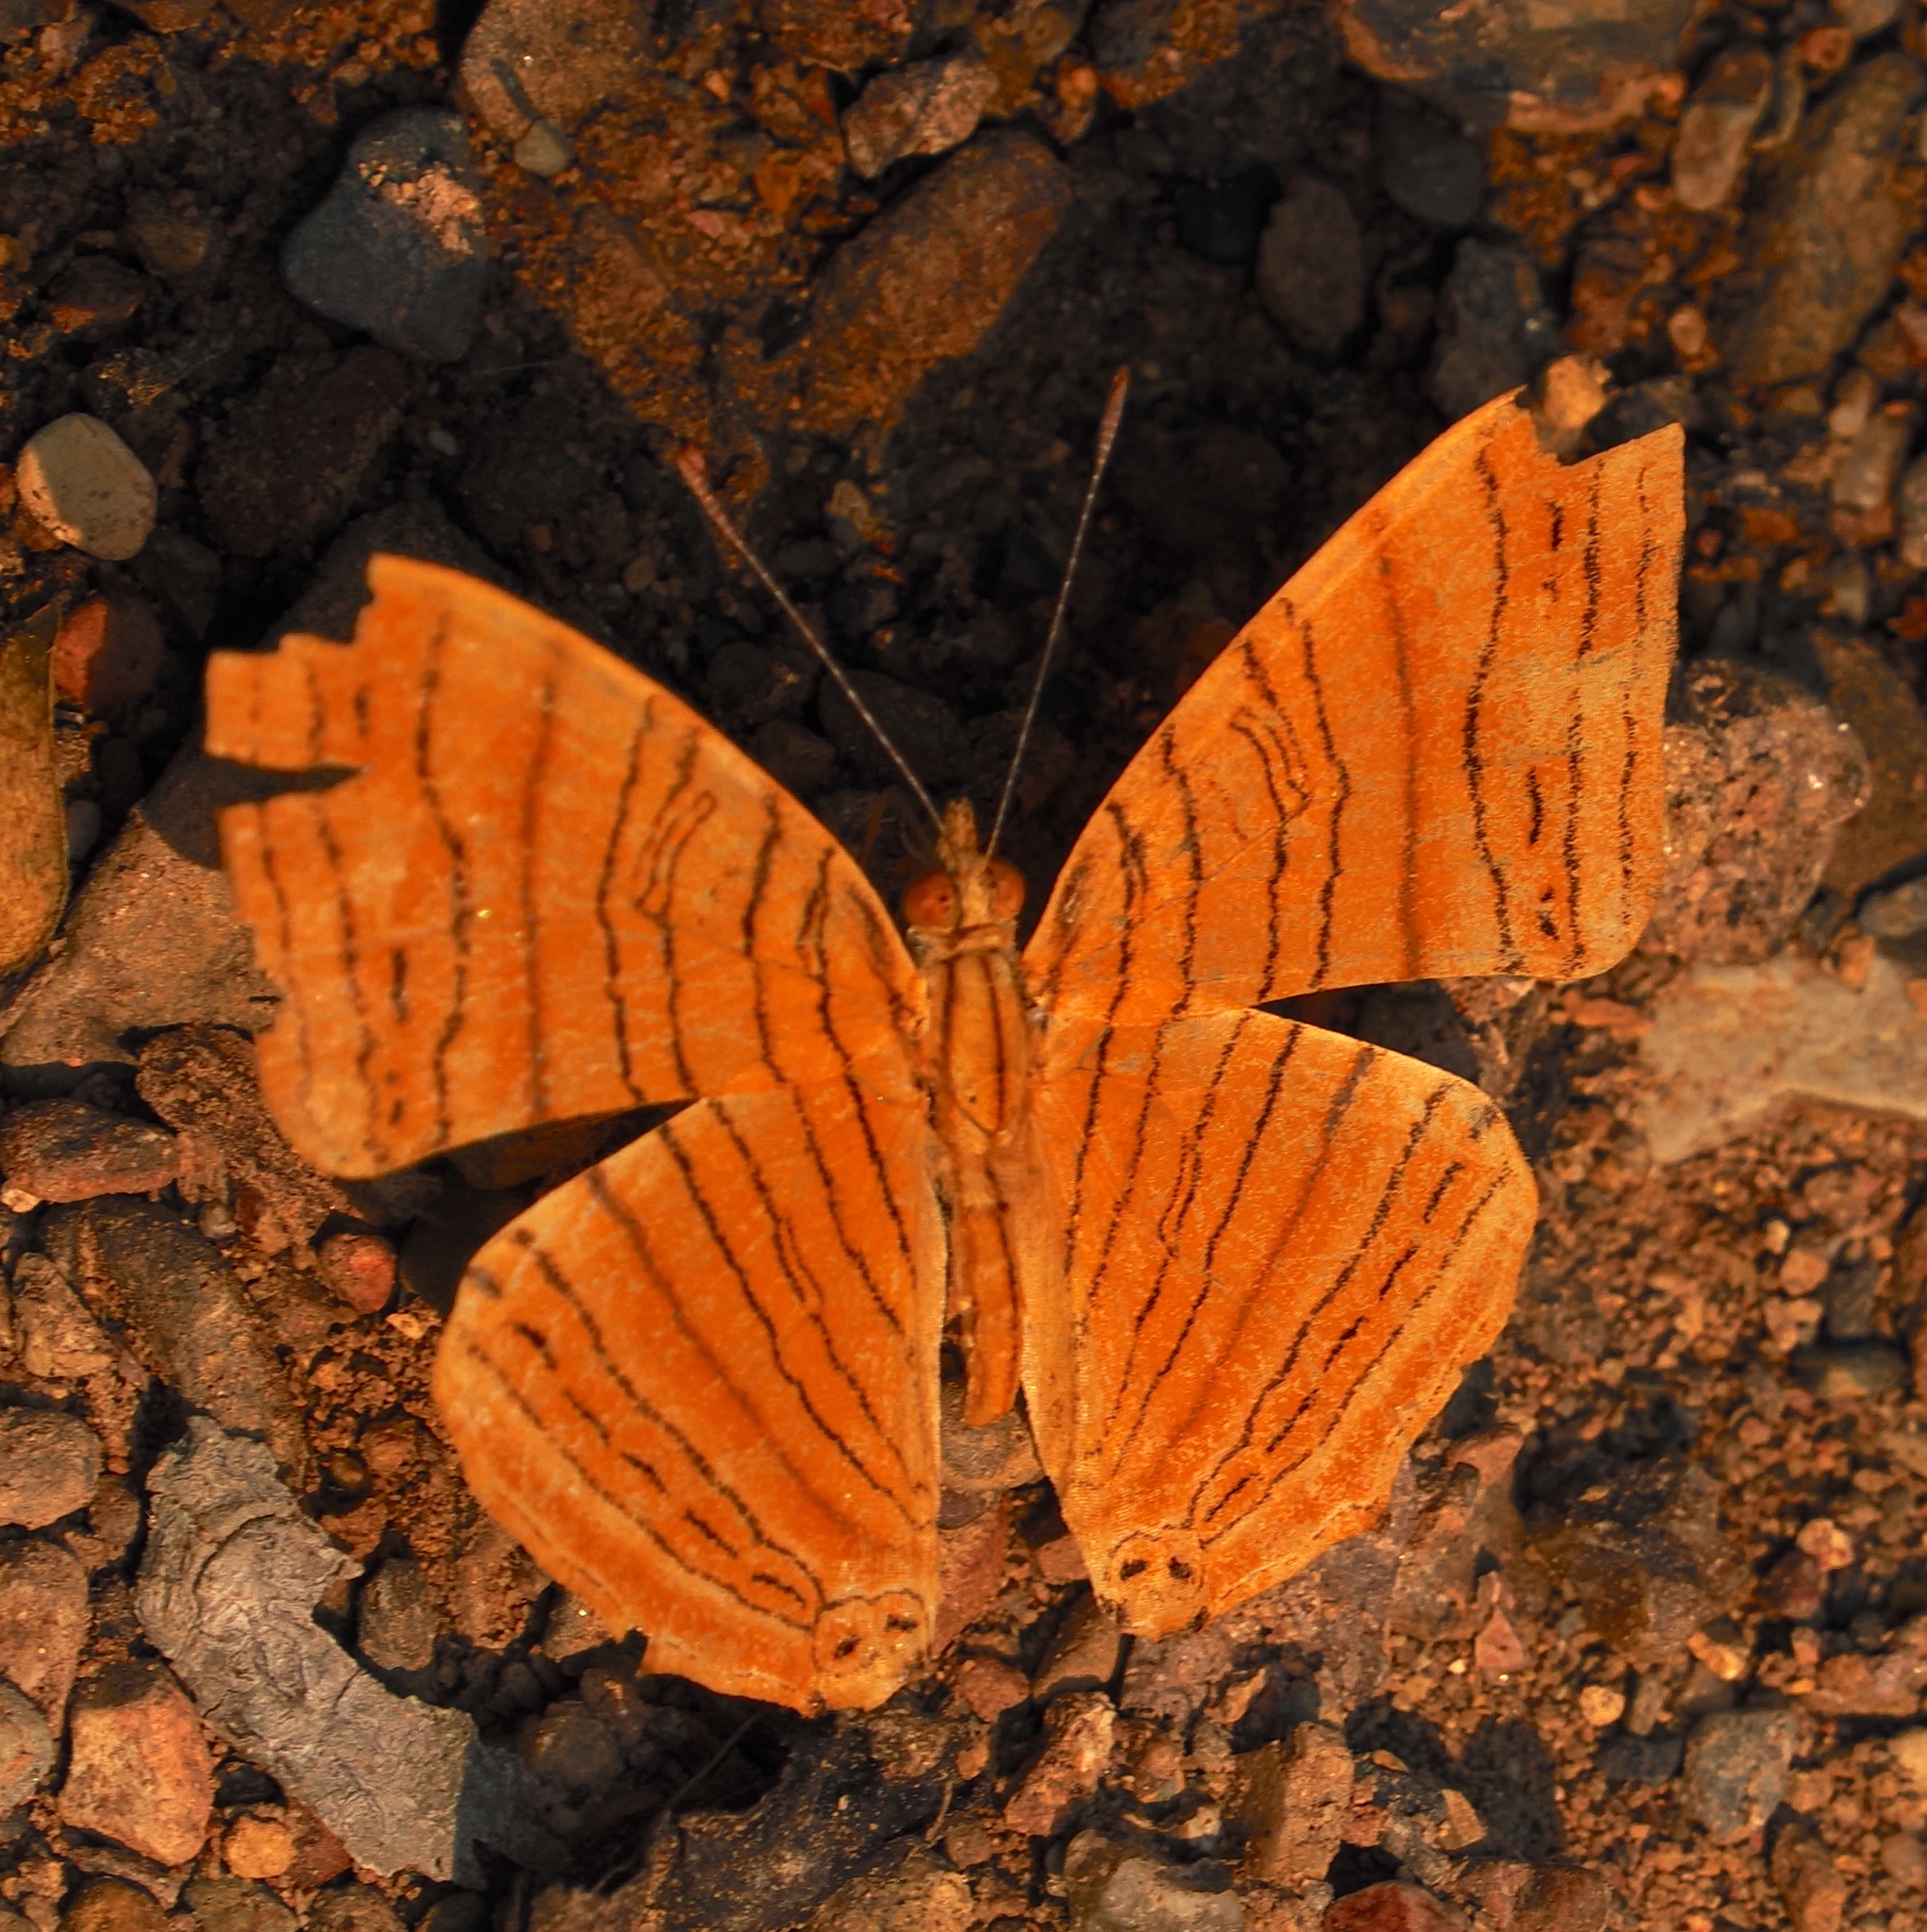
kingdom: Animalia
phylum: Arthropoda
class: Insecta
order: Lepidoptera
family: Nymphalidae
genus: Chersonesia
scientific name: Chersonesia intermedia
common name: Intermediate maplet
